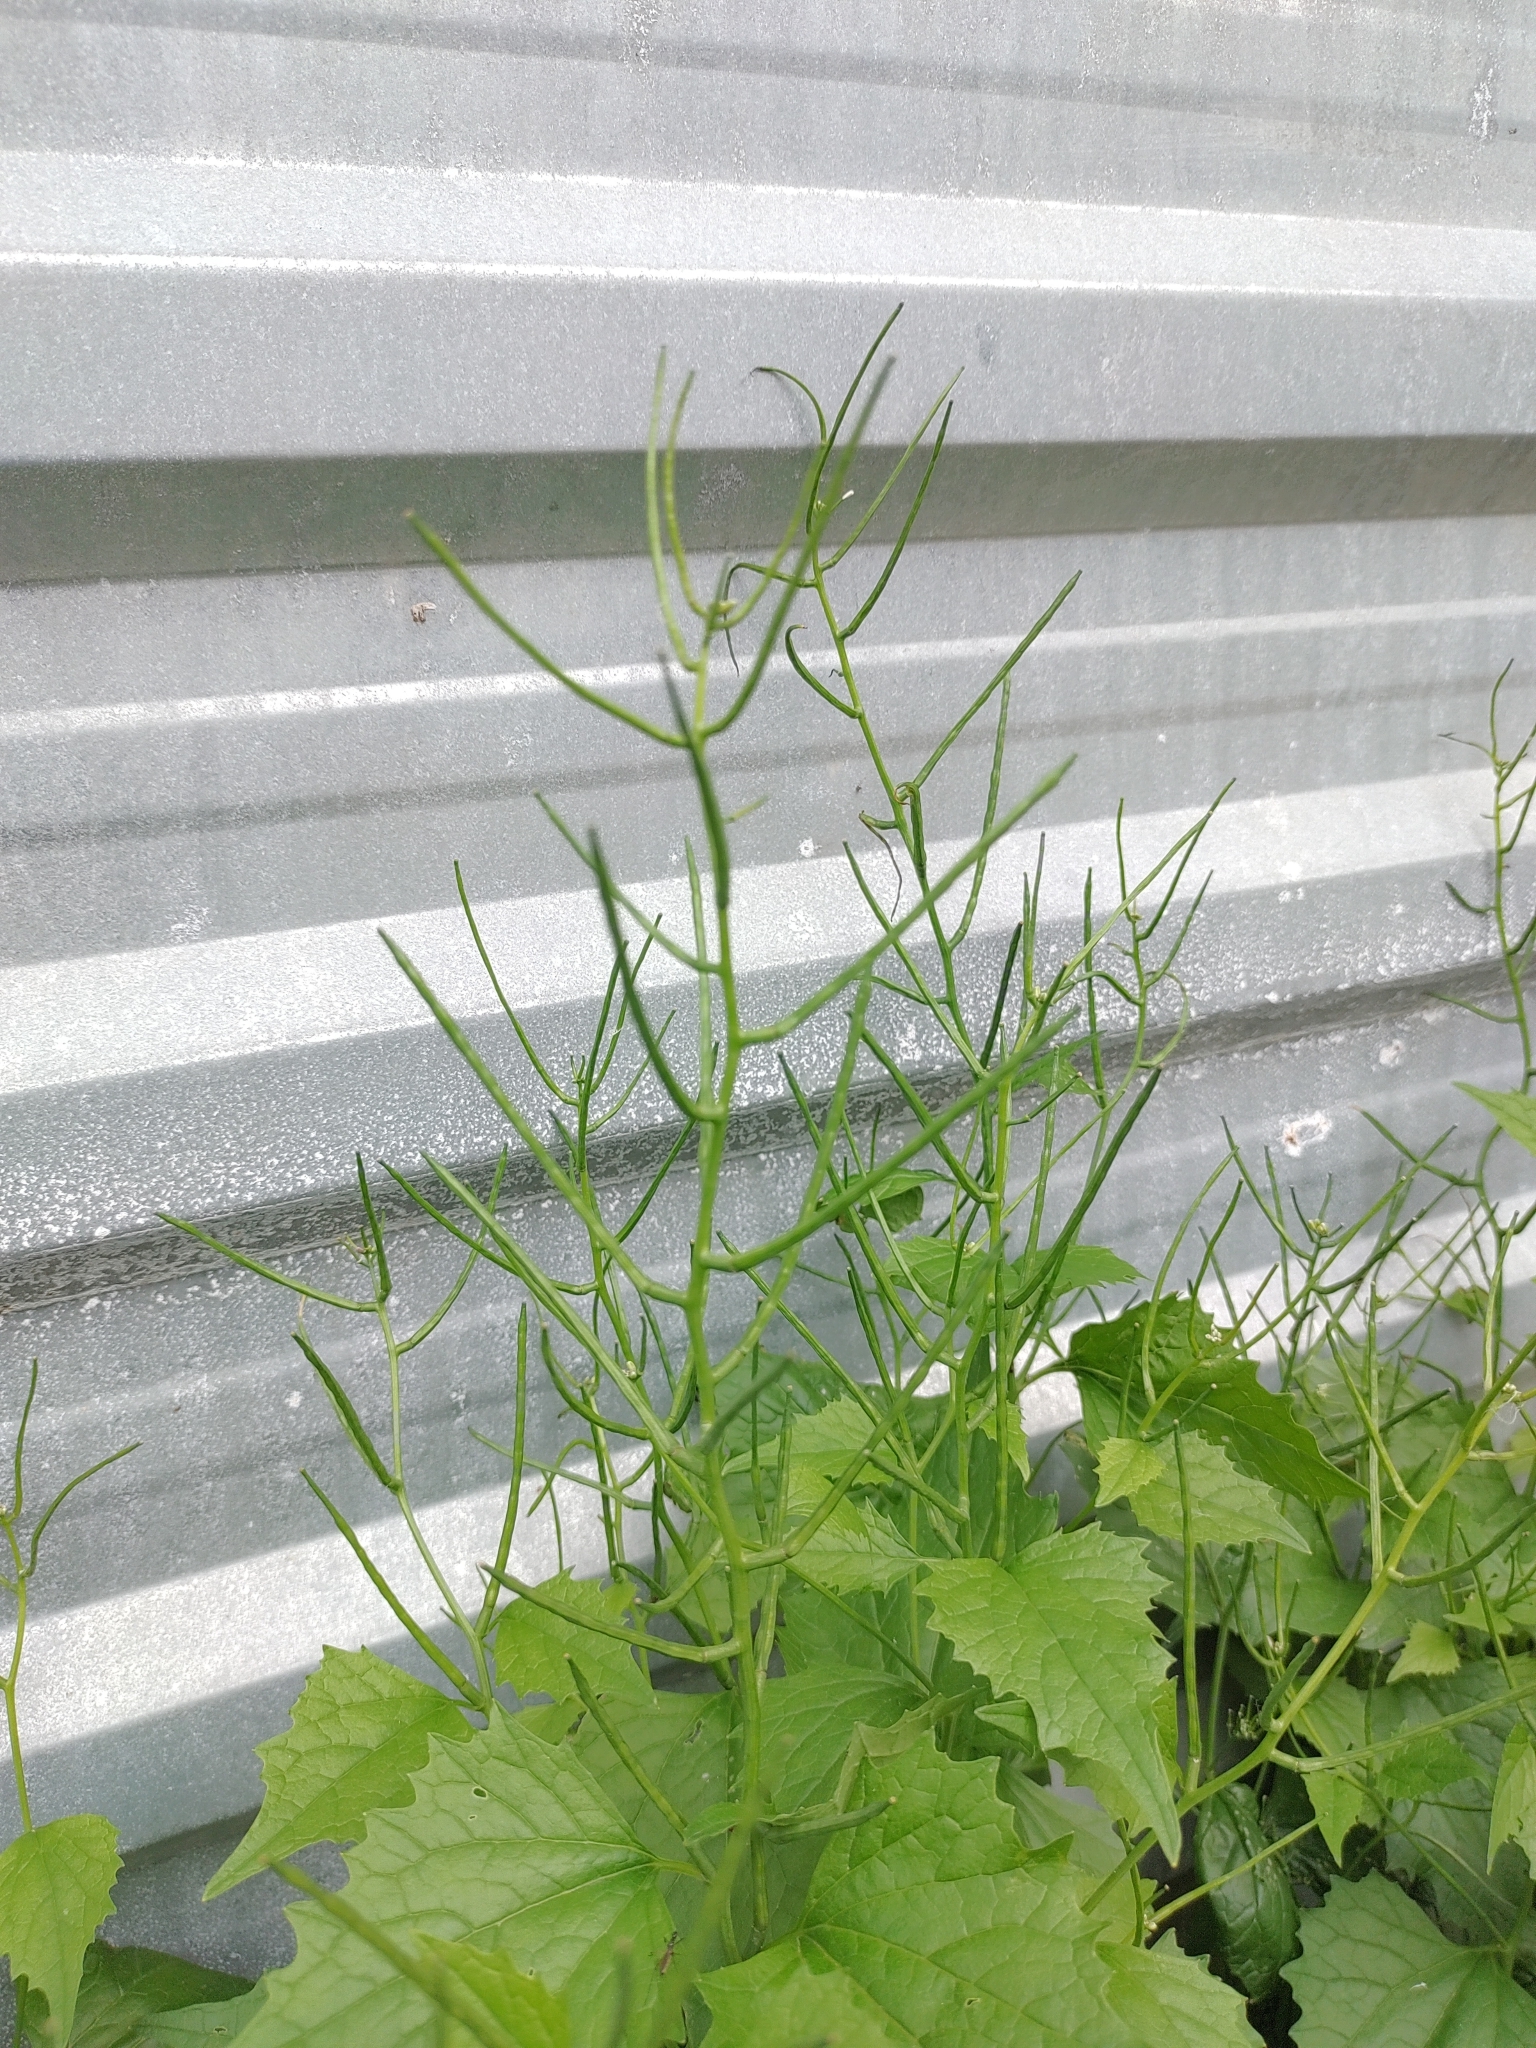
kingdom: Plantae
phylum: Tracheophyta
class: Magnoliopsida
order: Brassicales
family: Brassicaceae
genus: Alliaria
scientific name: Alliaria petiolata
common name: Garlic mustard
